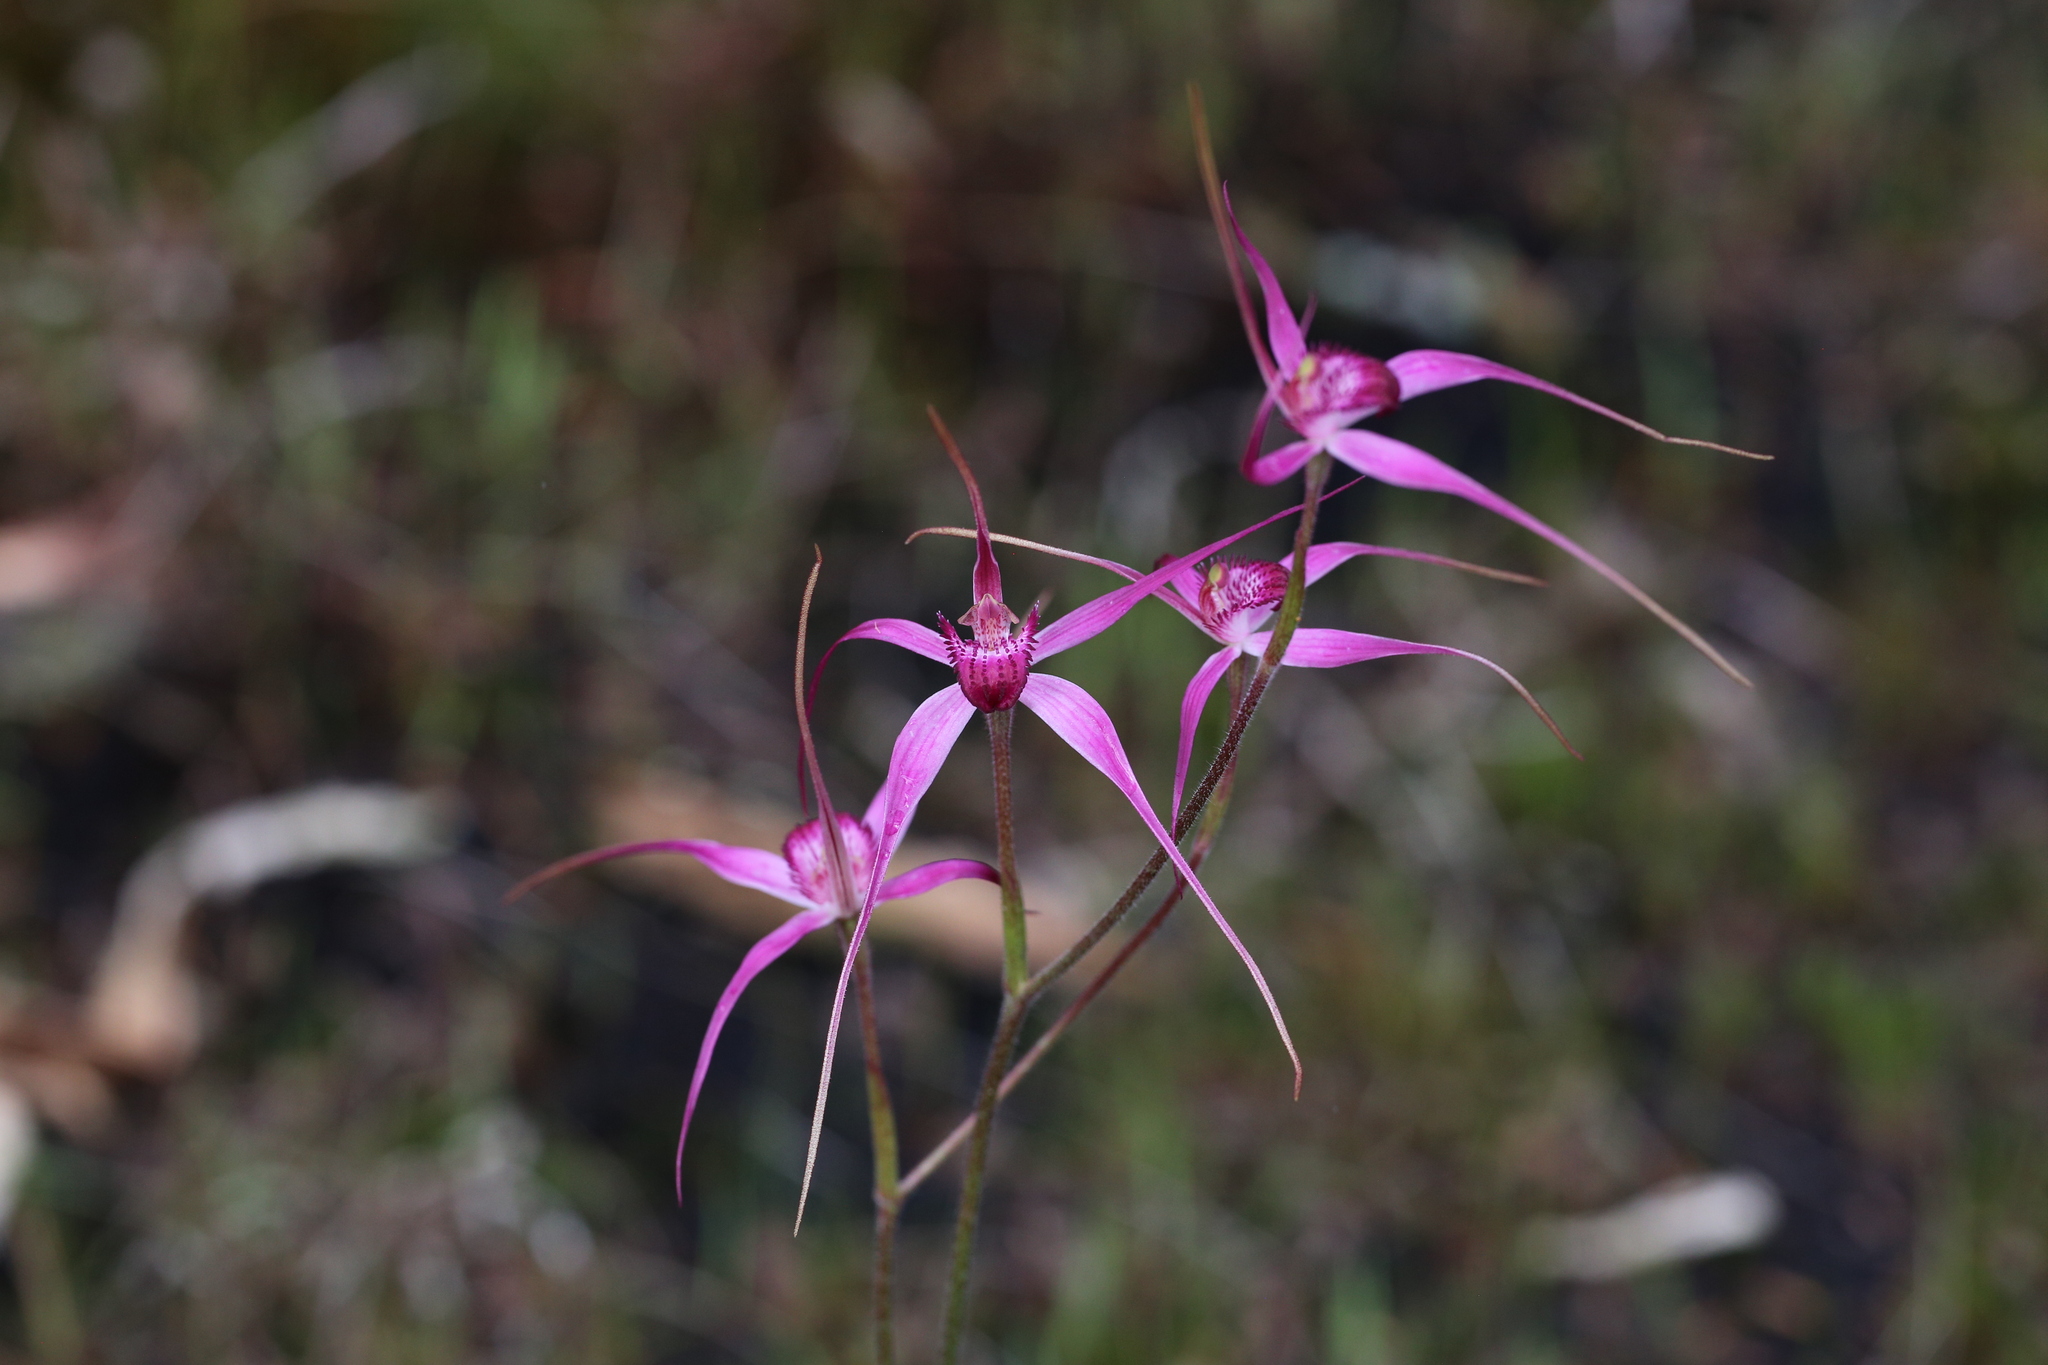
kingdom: Plantae
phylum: Tracheophyta
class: Liliopsida
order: Asparagales
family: Orchidaceae
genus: Caladenia
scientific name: Caladenia harringtoniae
